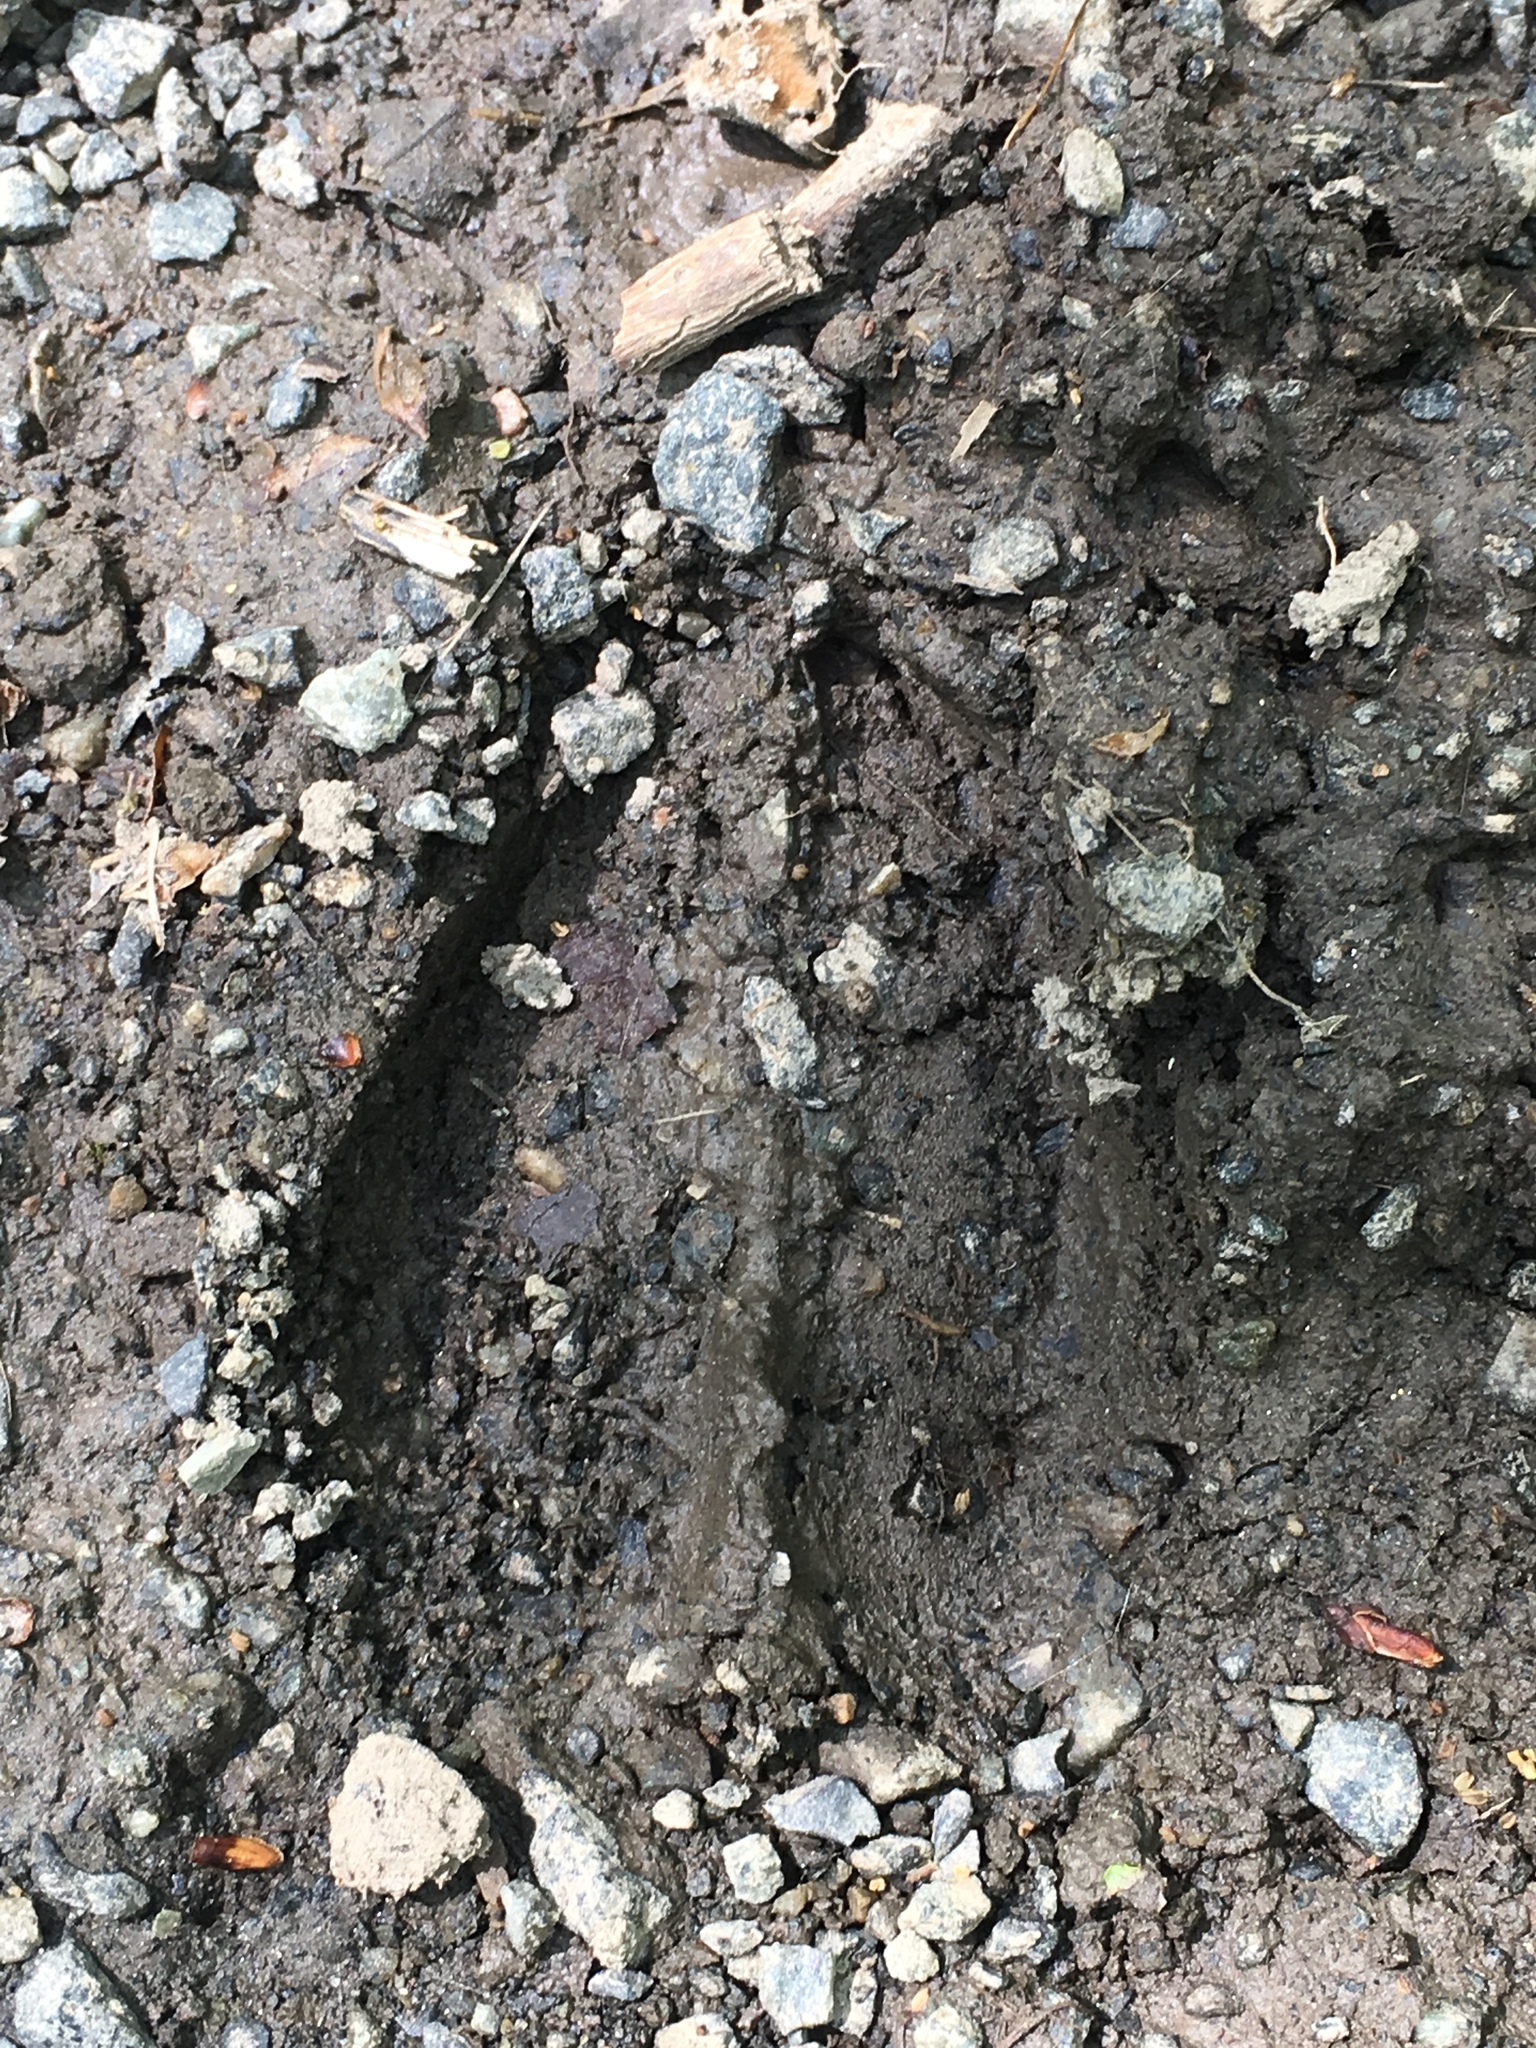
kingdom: Animalia
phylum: Chordata
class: Mammalia
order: Artiodactyla
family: Cervidae
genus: Odocoileus
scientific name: Odocoileus virginianus
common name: White-tailed deer
